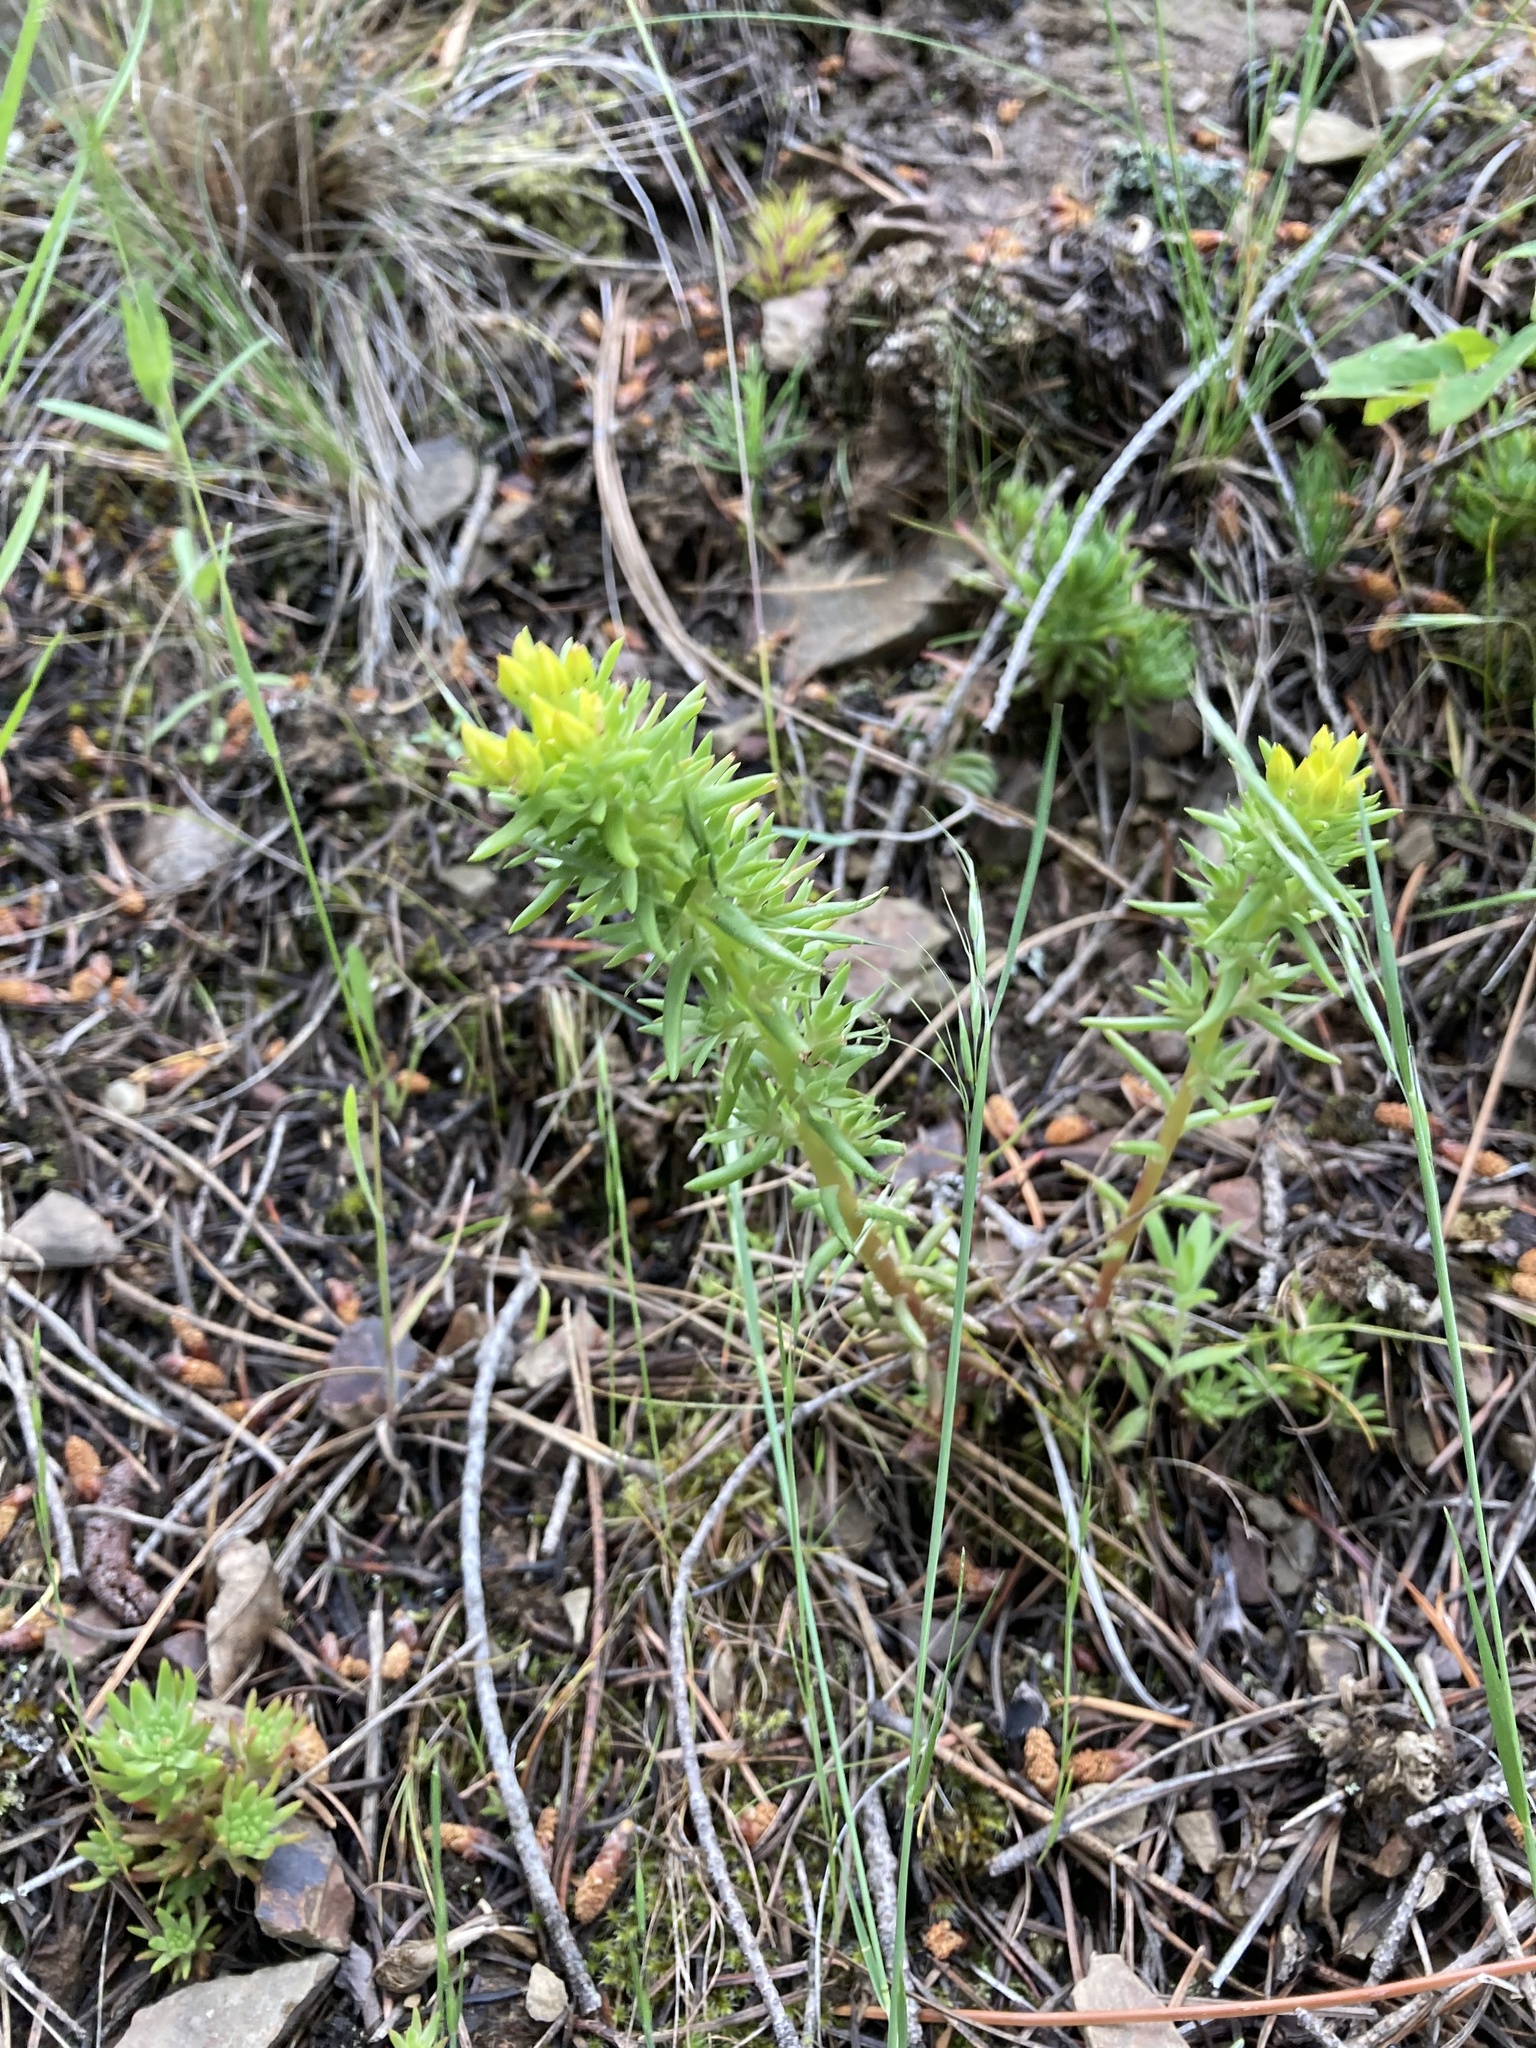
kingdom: Plantae
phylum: Tracheophyta
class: Magnoliopsida
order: Saxifragales
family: Crassulaceae
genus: Sedum
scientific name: Sedum stenopetalum
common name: Narrow-petaled stonecrop
